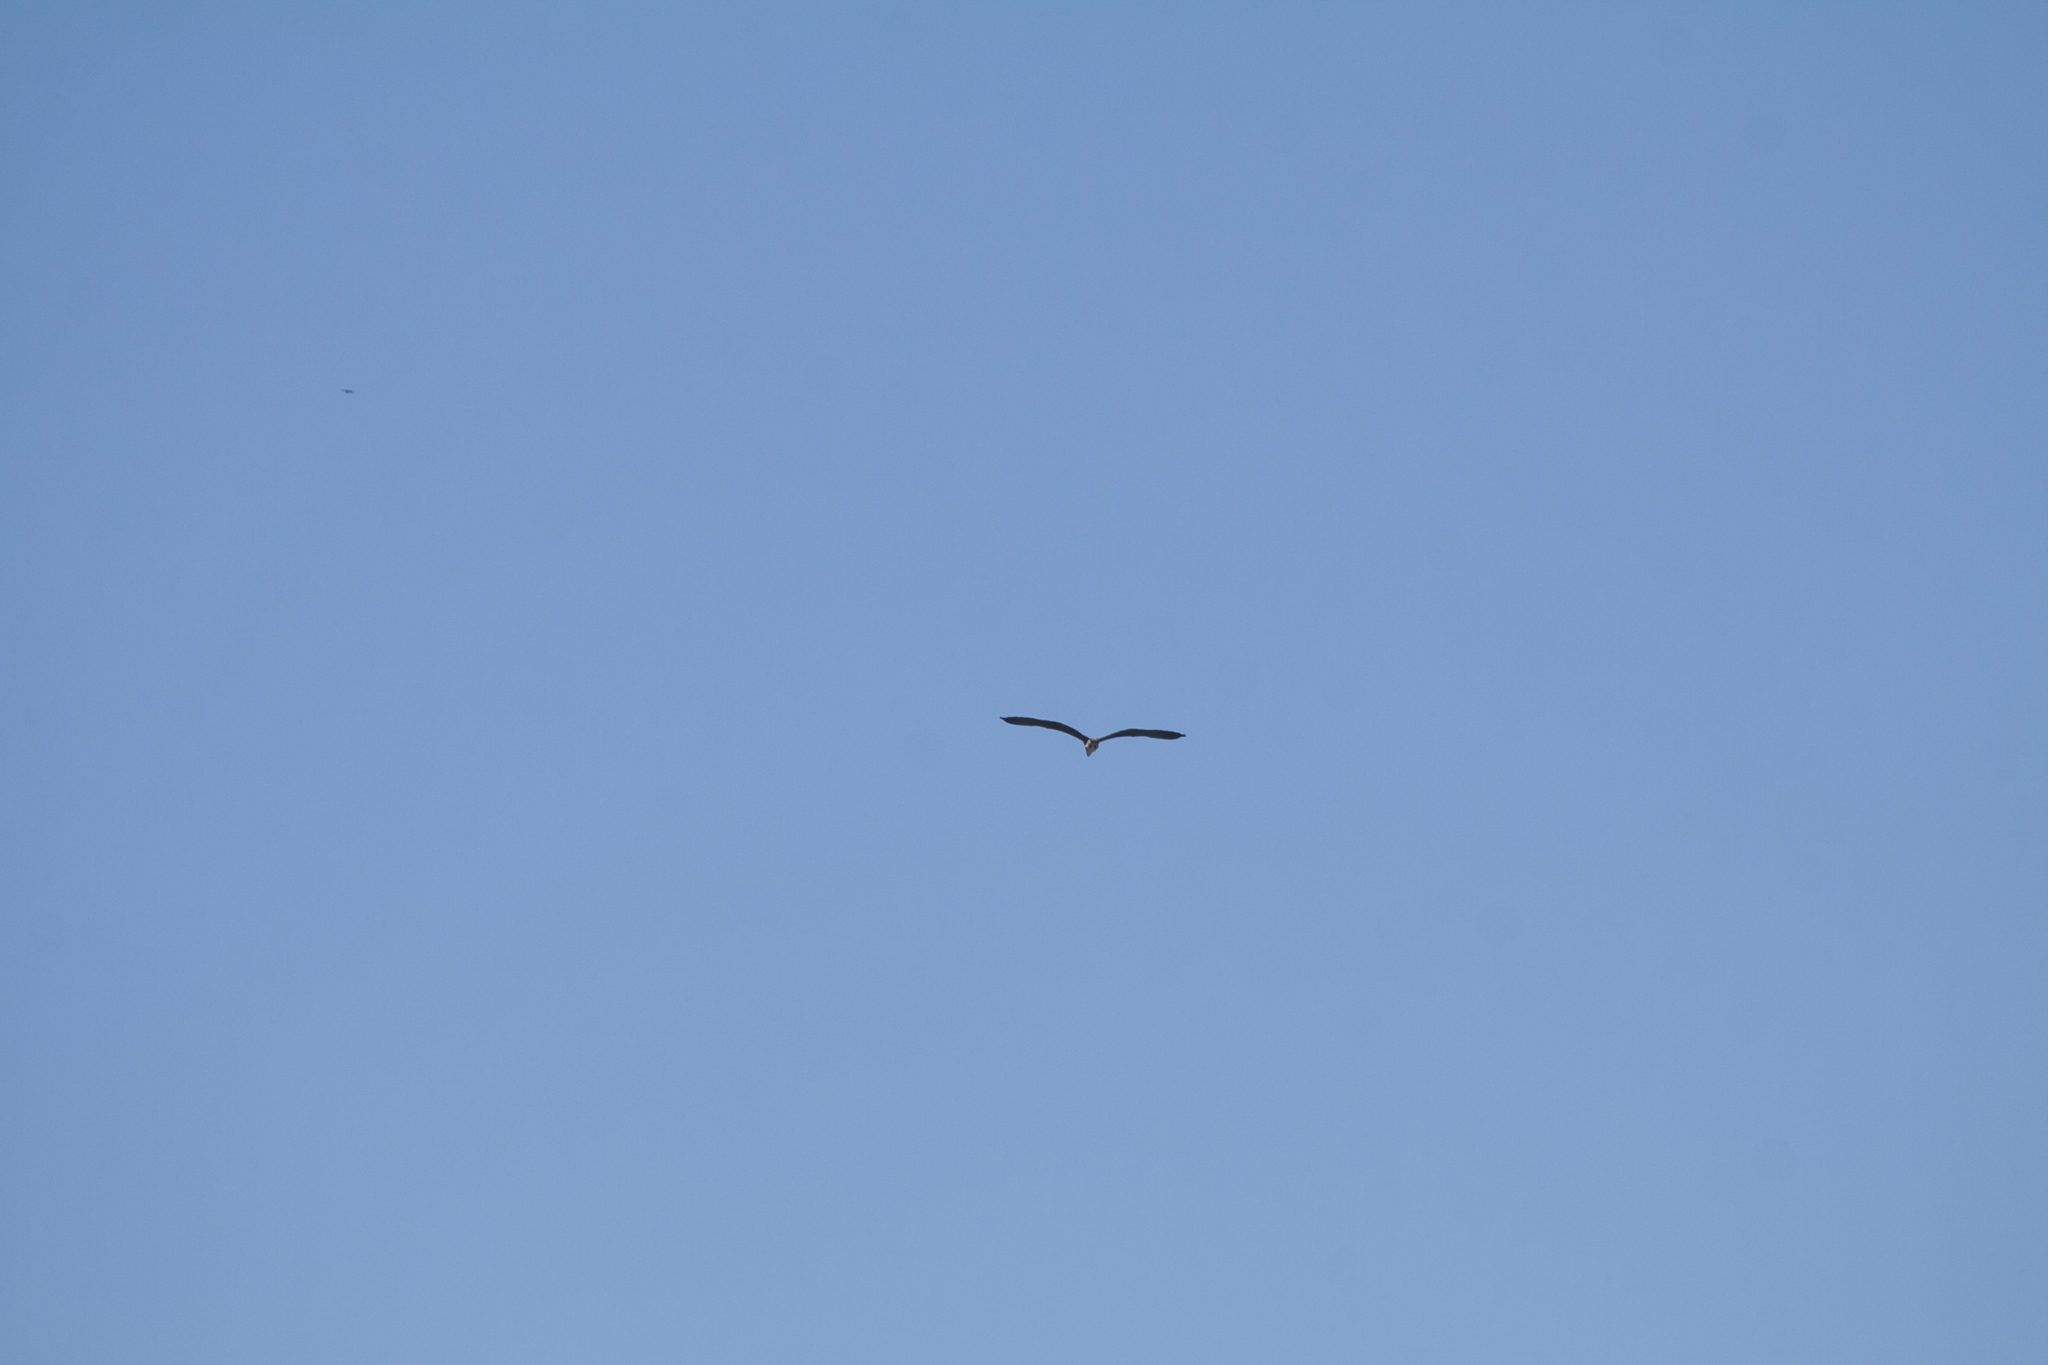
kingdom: Animalia
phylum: Chordata
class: Aves
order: Pelecaniformes
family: Ardeidae
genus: Ardea
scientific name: Ardea cinerea
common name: Grey heron
